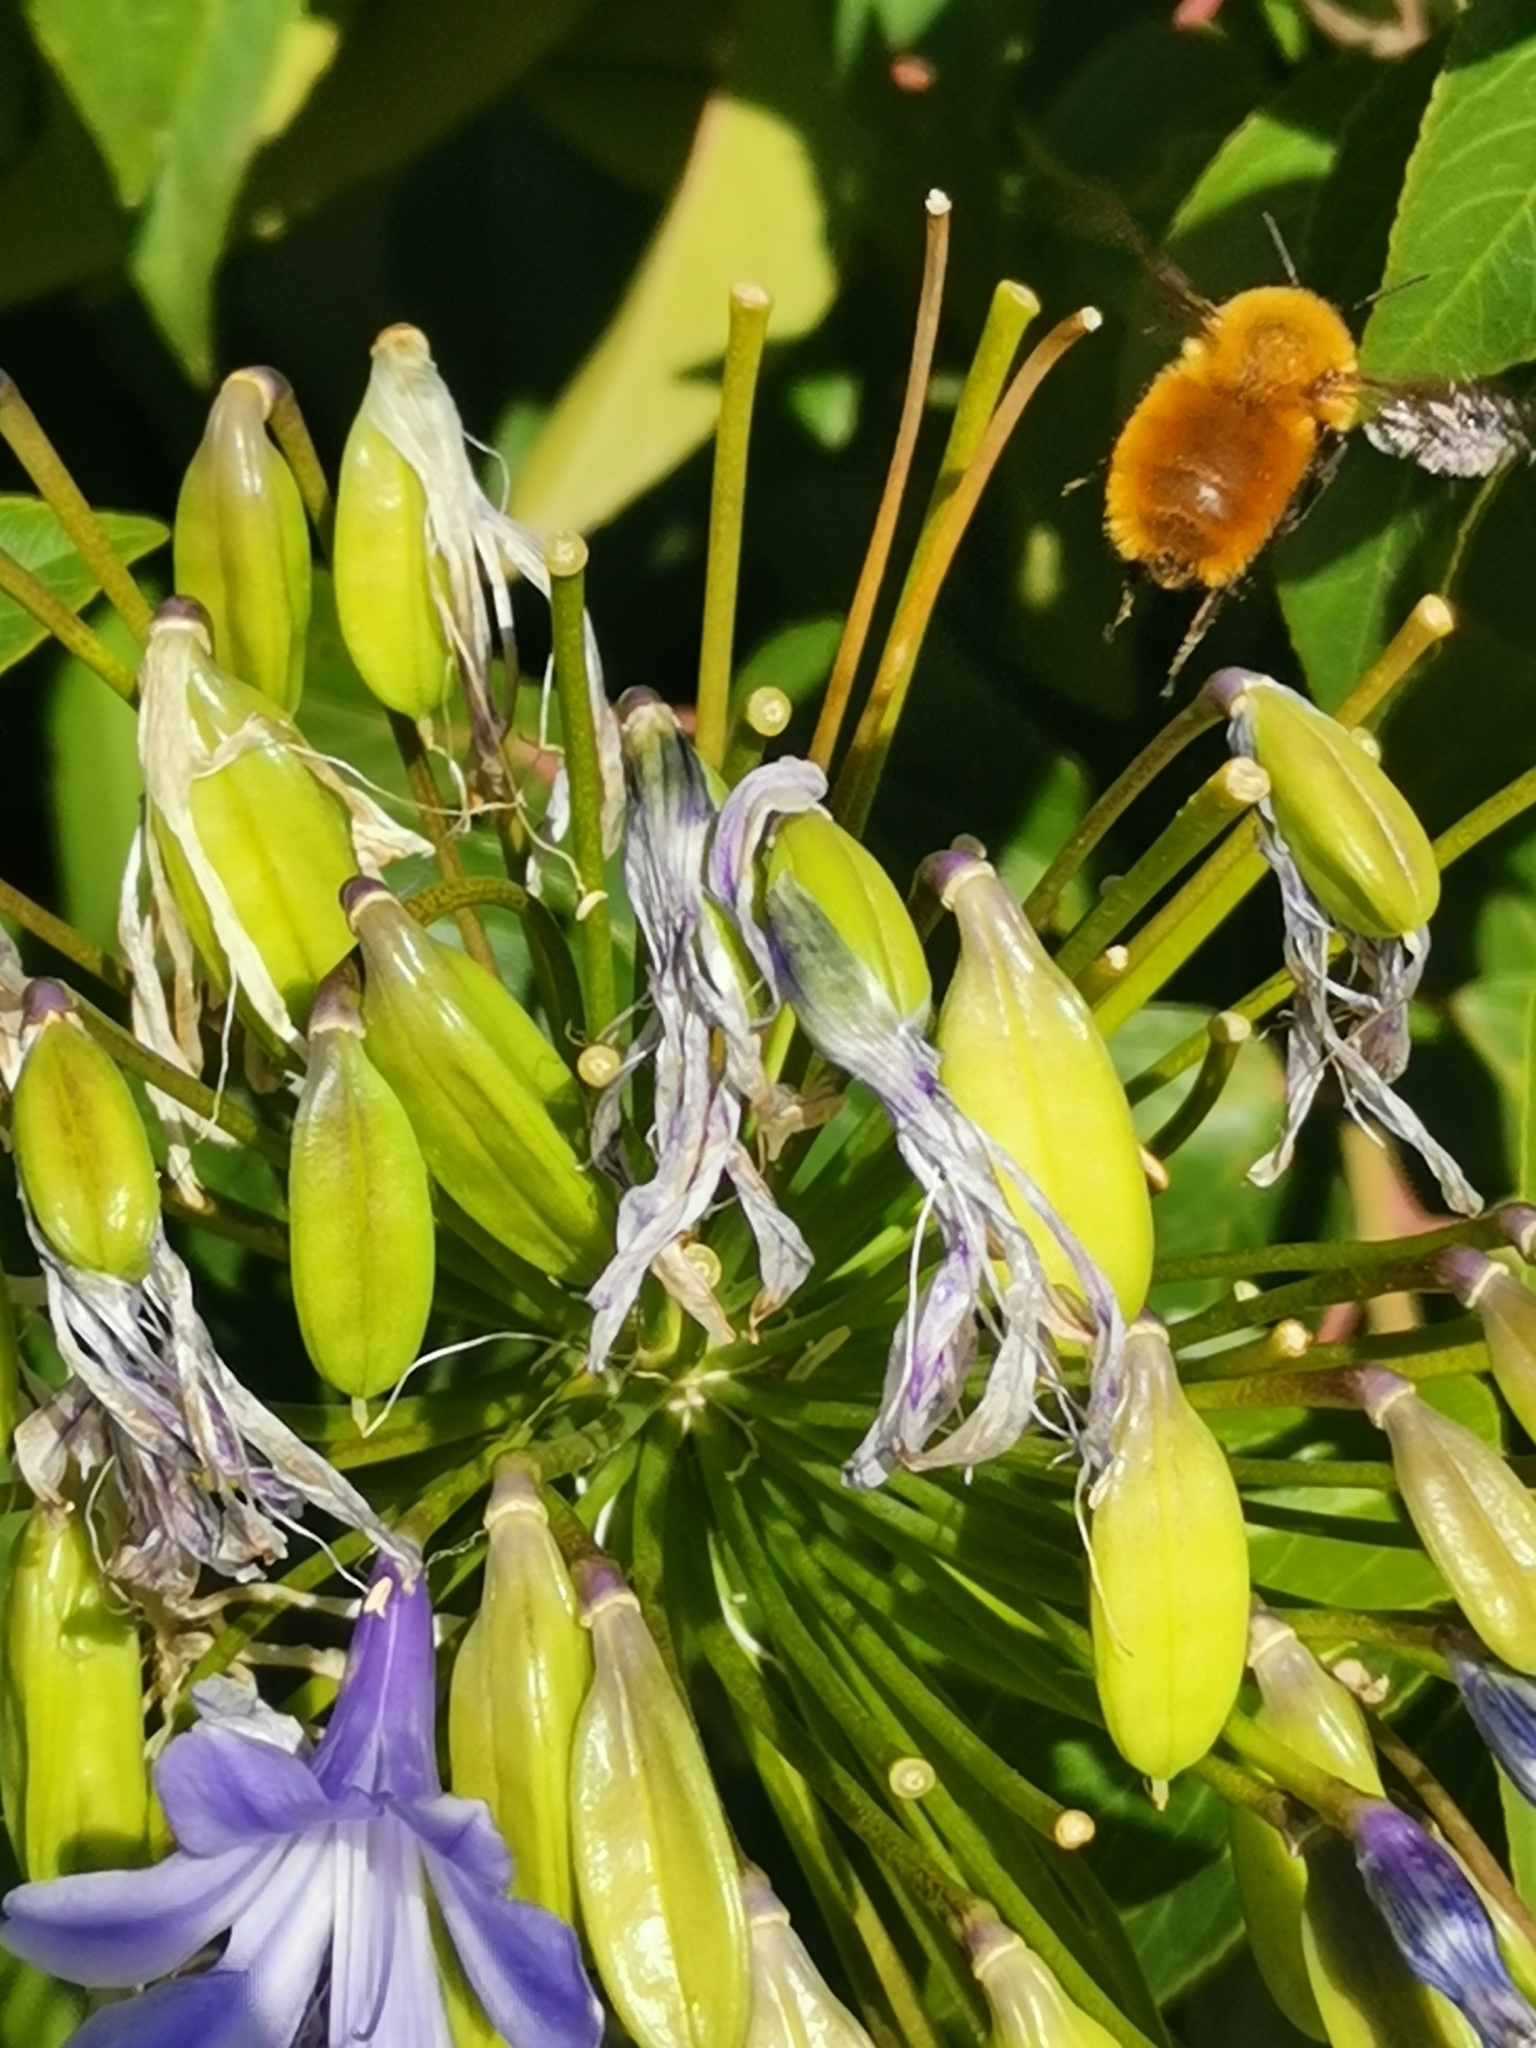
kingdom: Animalia
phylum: Arthropoda
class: Insecta
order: Hymenoptera
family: Apidae
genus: Bombus
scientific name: Bombus dahlbomii
